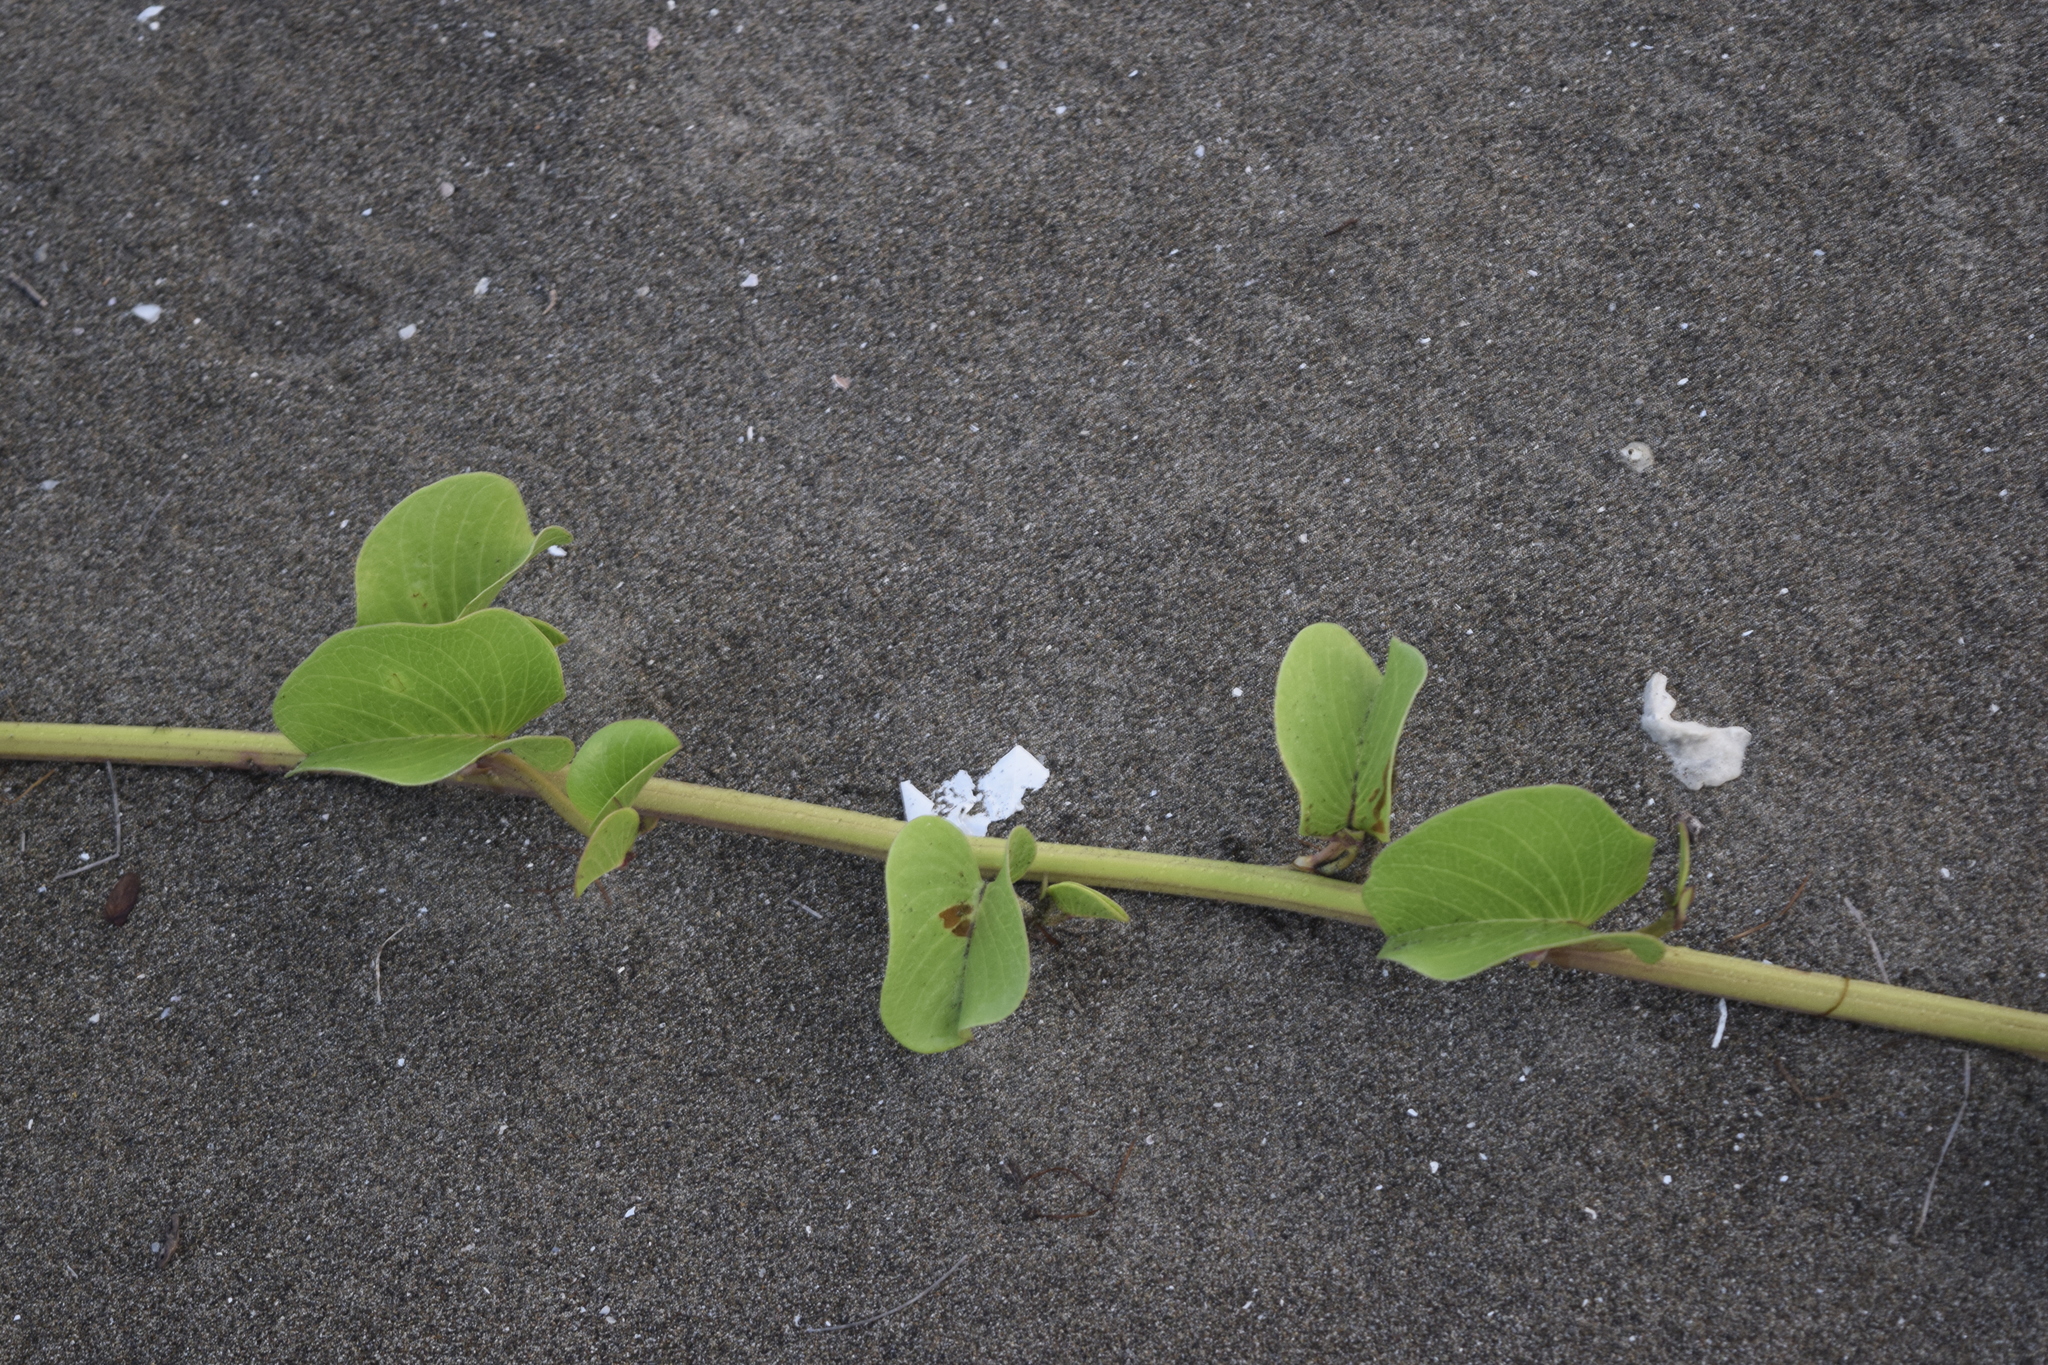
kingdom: Plantae
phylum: Tracheophyta
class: Magnoliopsida
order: Solanales
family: Convolvulaceae
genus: Ipomoea
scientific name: Ipomoea pes-caprae
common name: Beach morning glory
